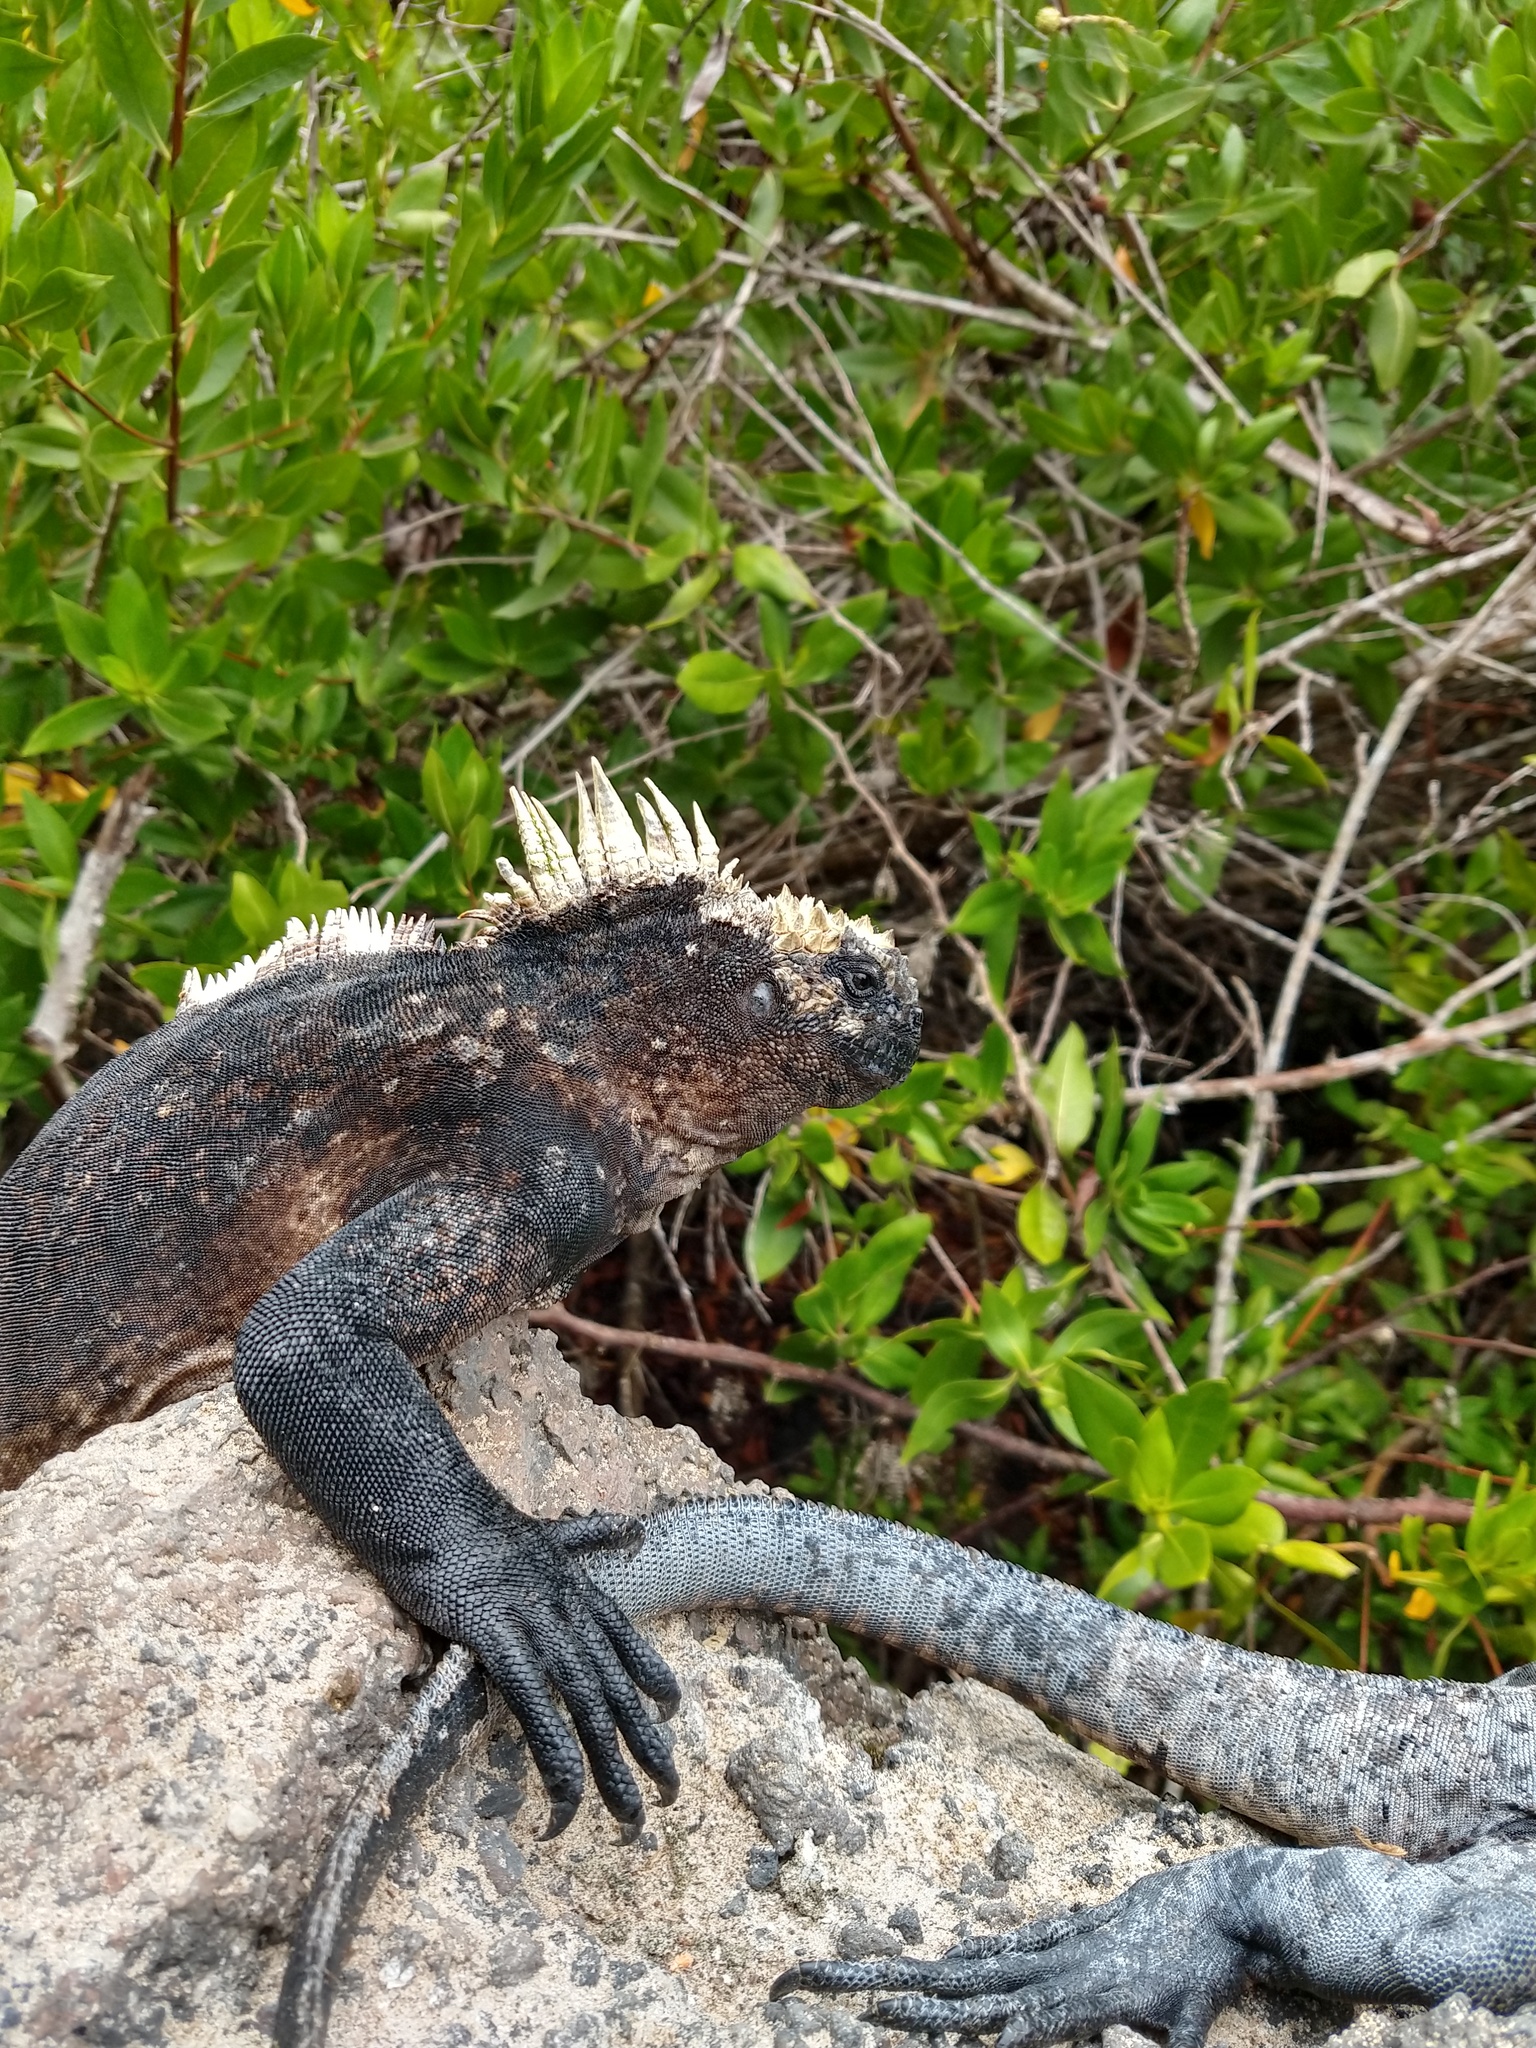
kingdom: Animalia
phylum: Chordata
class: Squamata
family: Iguanidae
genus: Amblyrhynchus
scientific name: Amblyrhynchus cristatus
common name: Marine iguana
